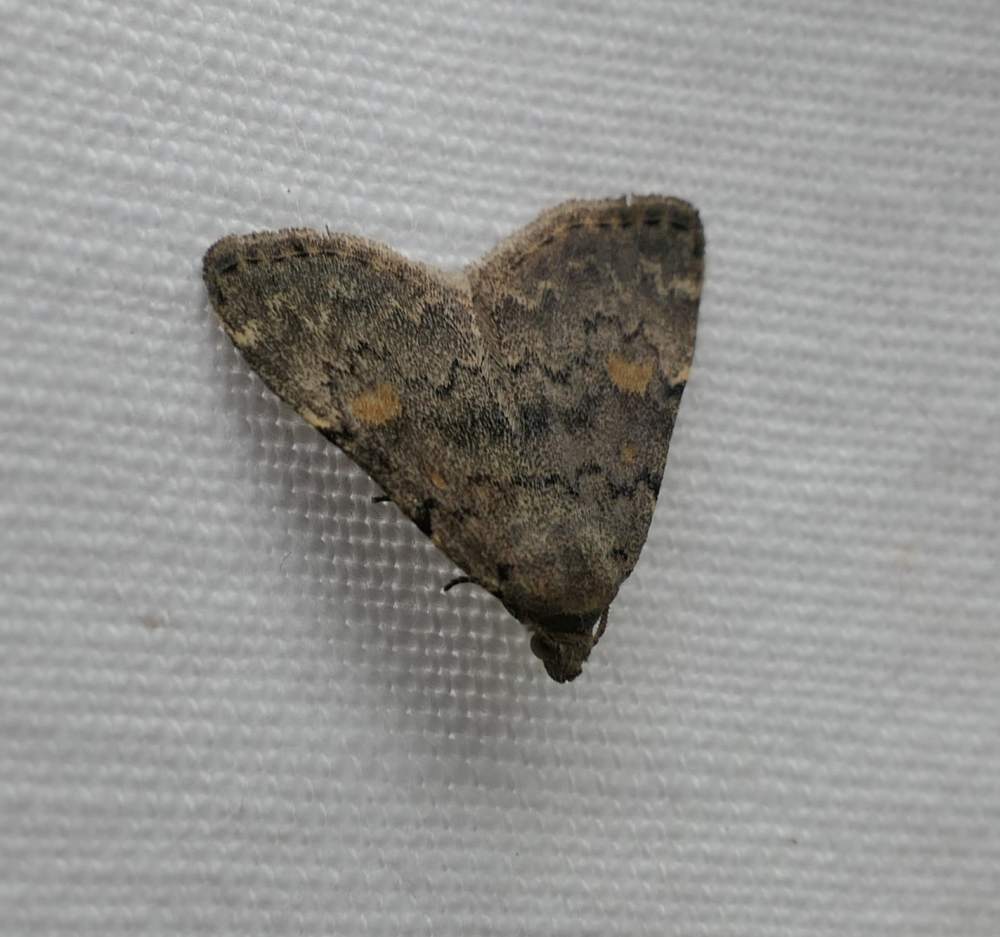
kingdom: Animalia
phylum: Arthropoda
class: Insecta
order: Lepidoptera
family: Erebidae
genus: Idia
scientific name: Idia aemula
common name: Common idia moth
